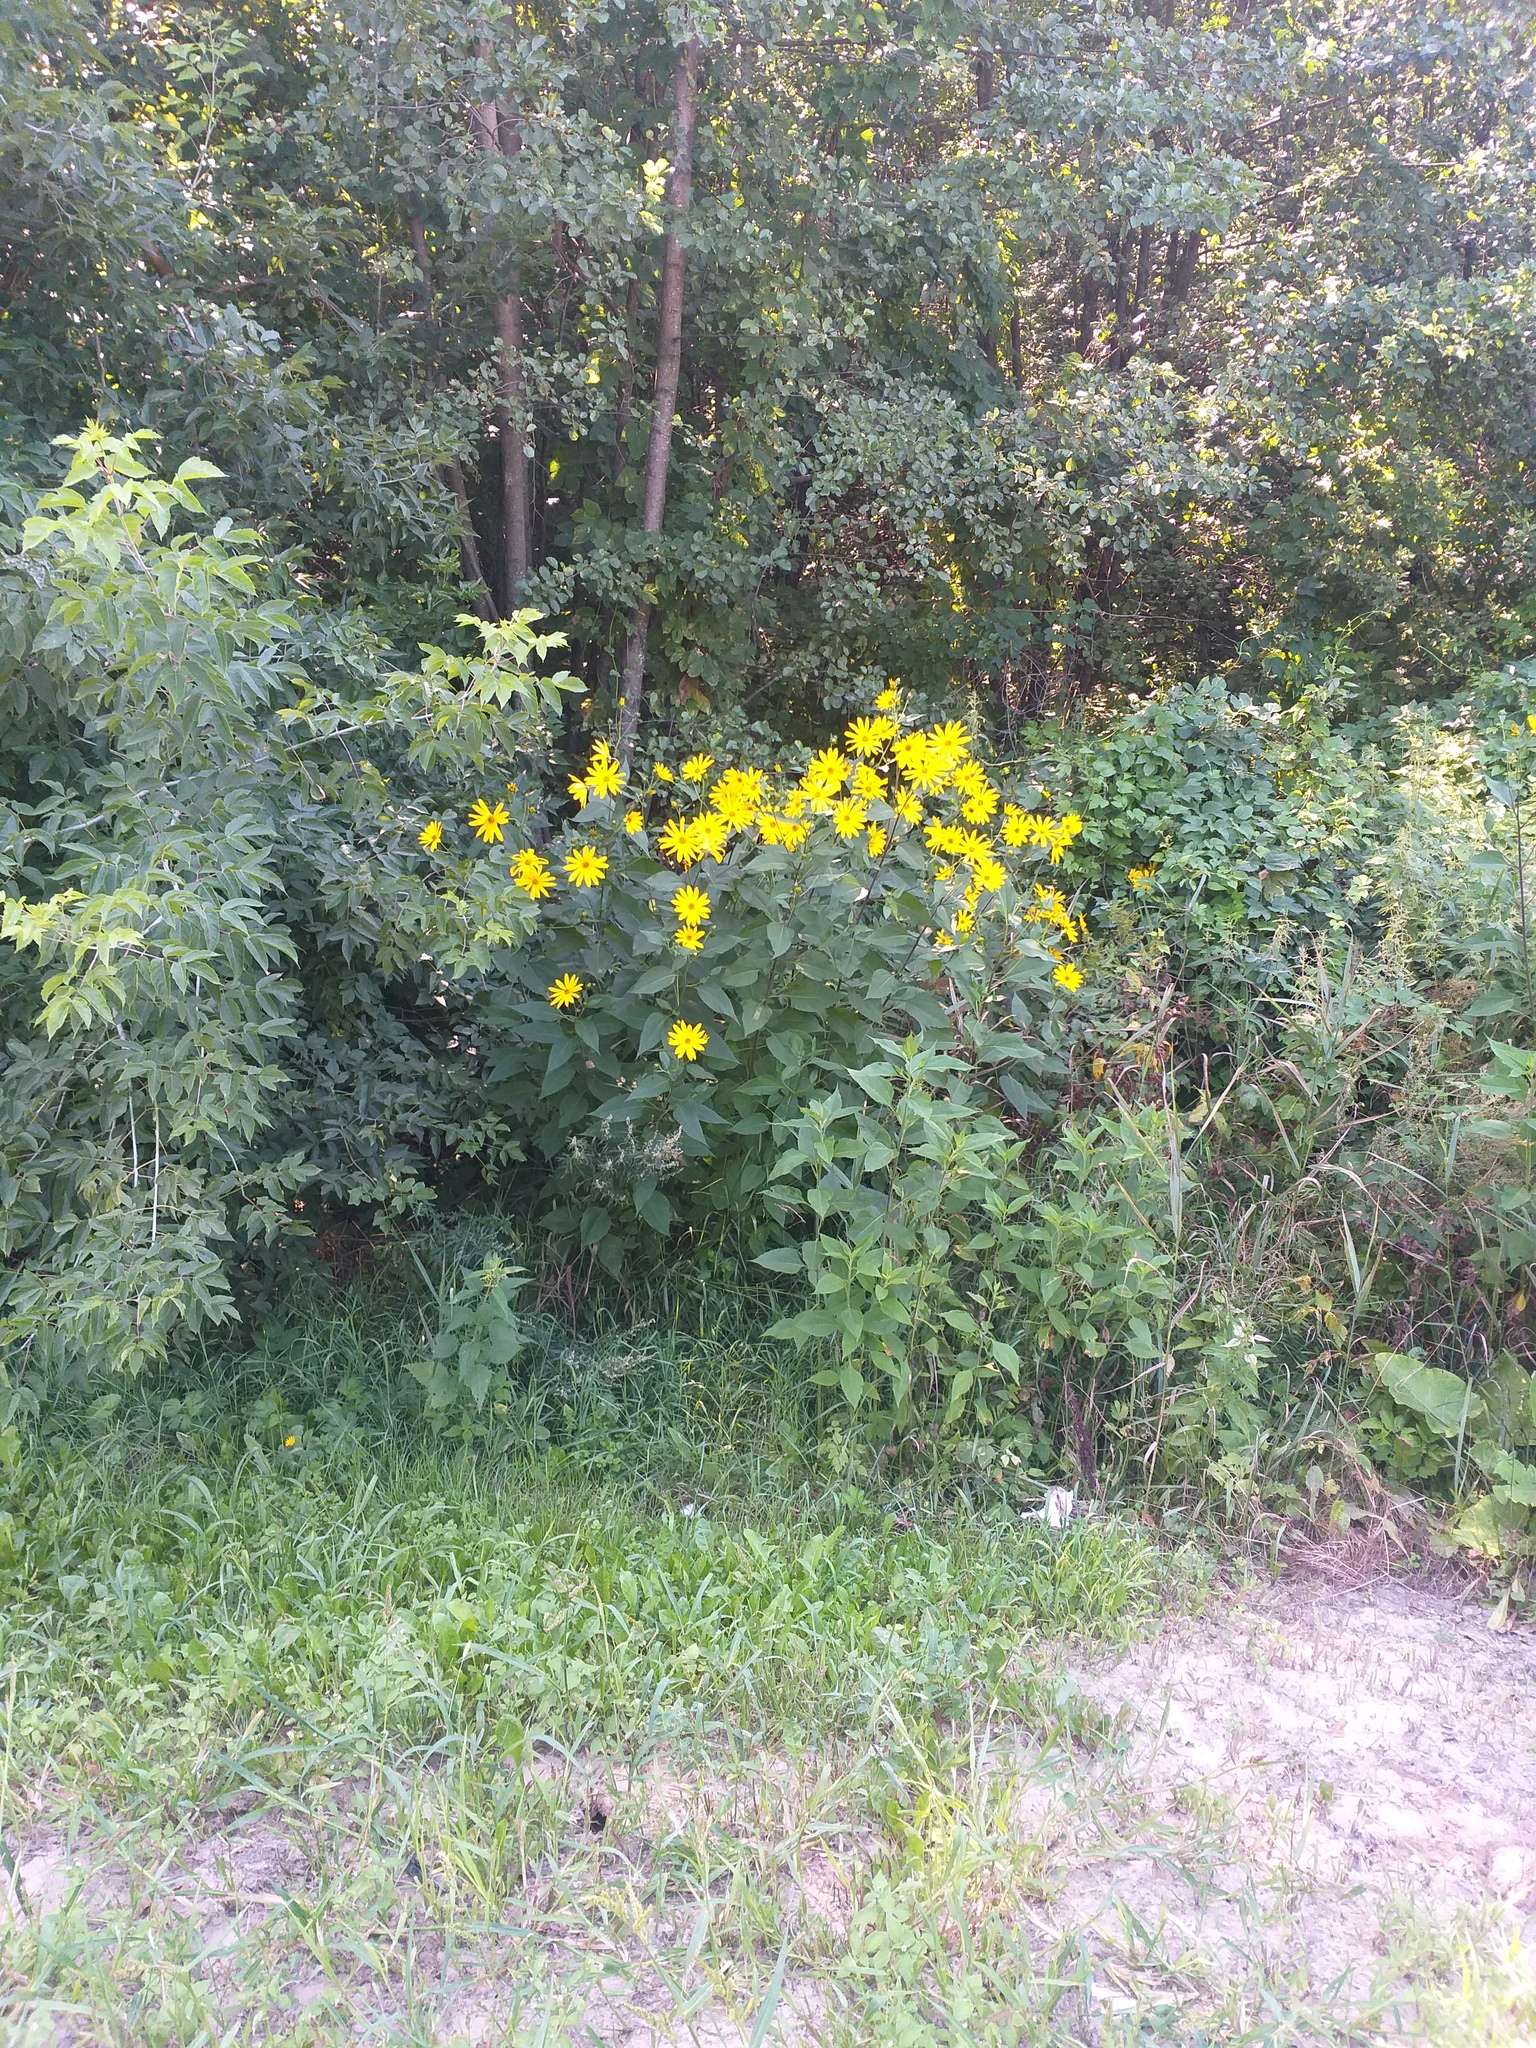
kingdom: Plantae
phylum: Tracheophyta
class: Magnoliopsida
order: Asterales
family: Asteraceae
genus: Helianthus
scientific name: Helianthus tuberosus
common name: Jerusalem artichoke
